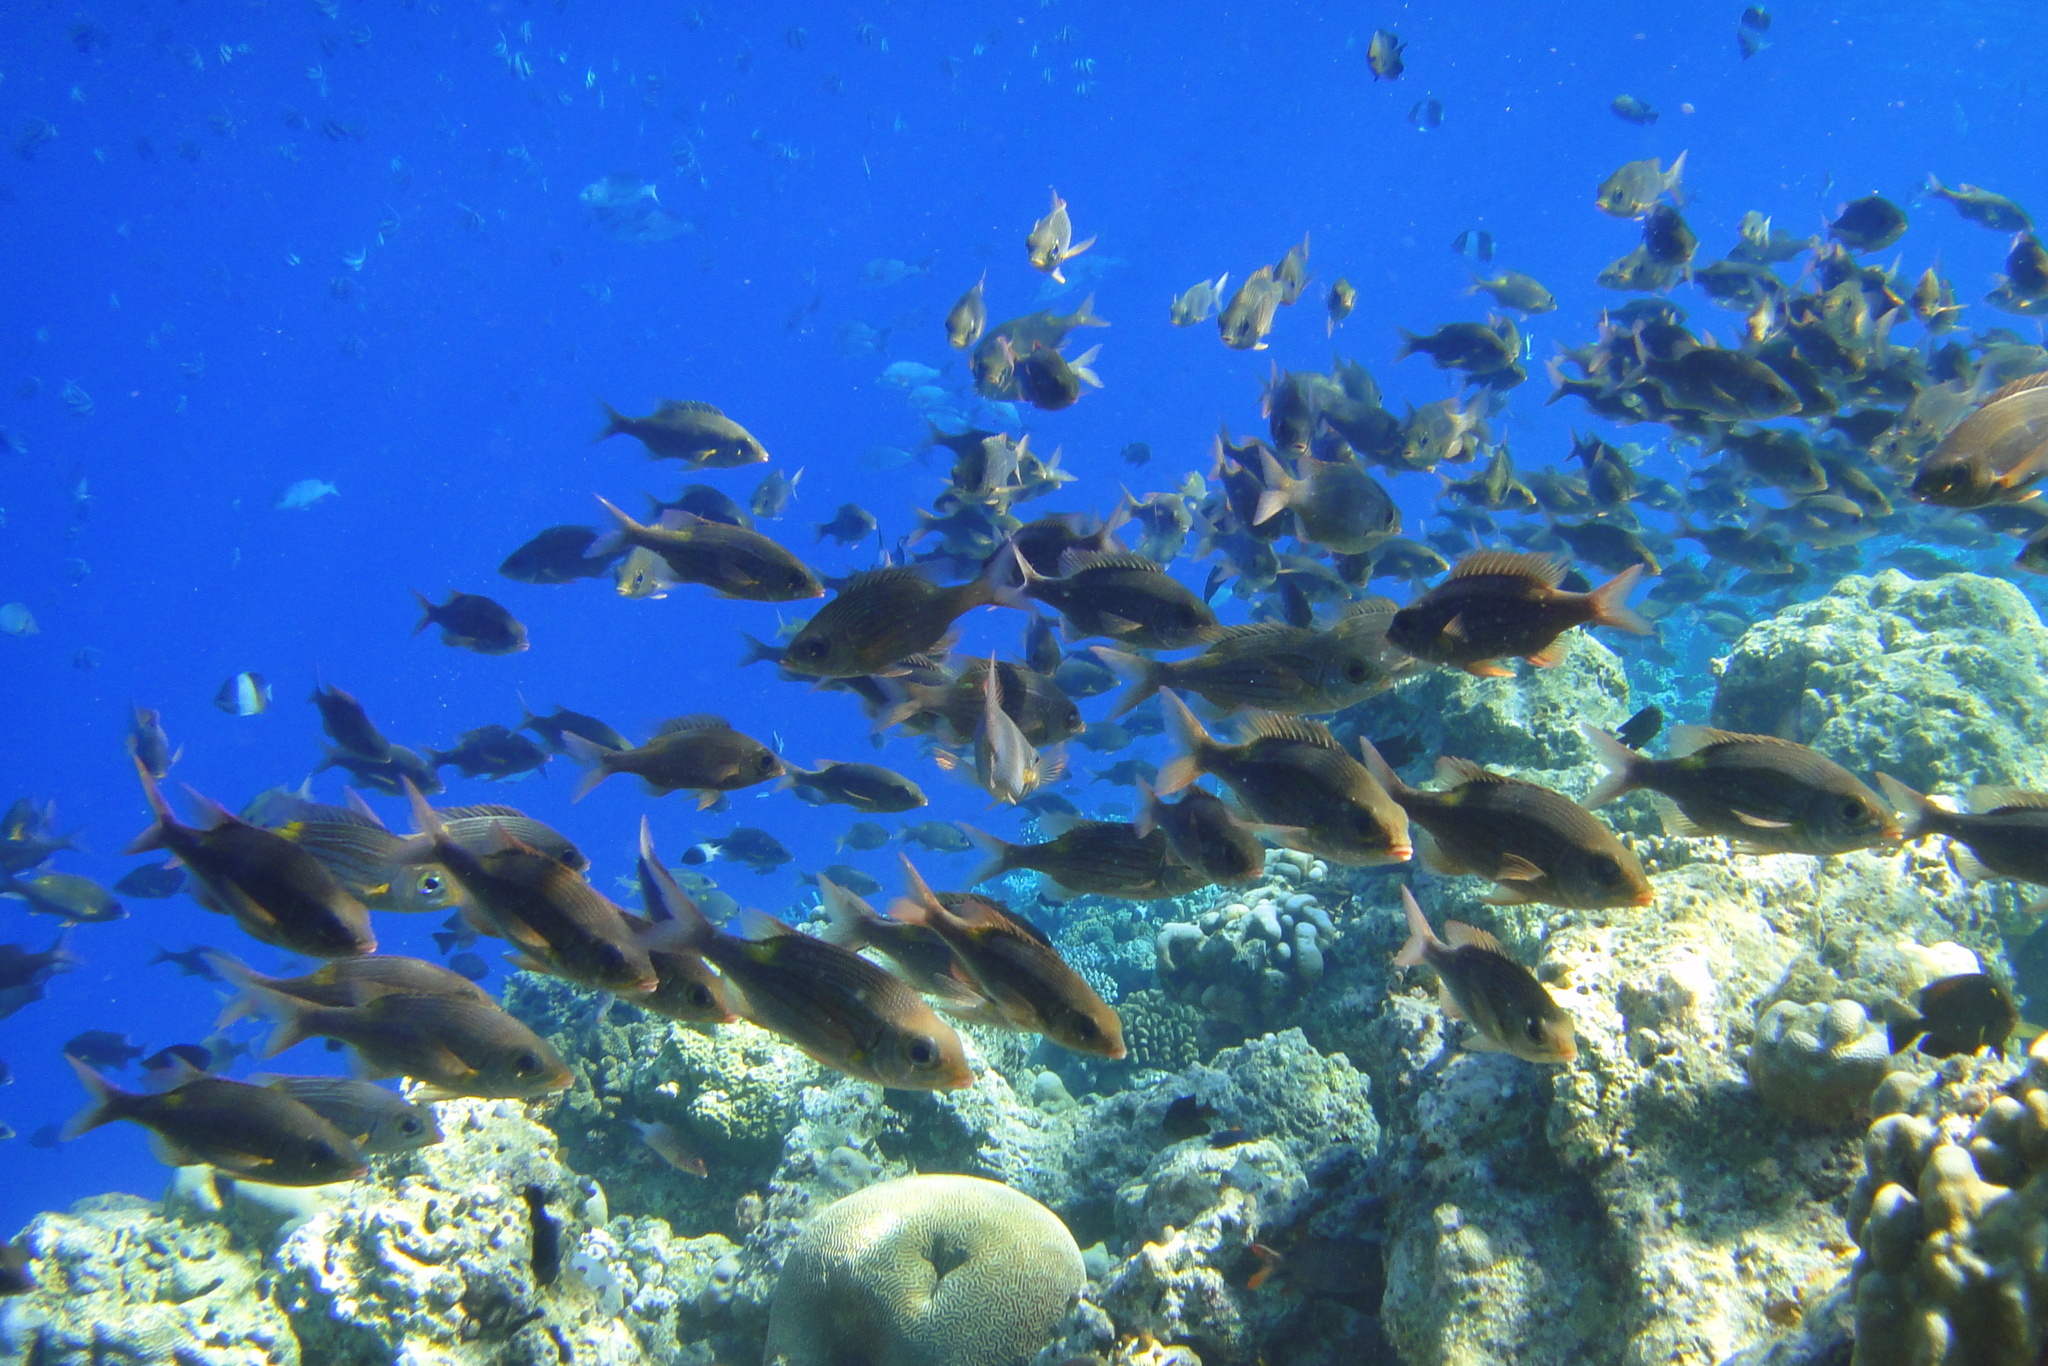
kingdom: Animalia
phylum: Chordata
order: Perciformes
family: Lethrinidae
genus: Gnathodentex
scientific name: Gnathodentex aureolineatus
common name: Gold-lined sea bream
